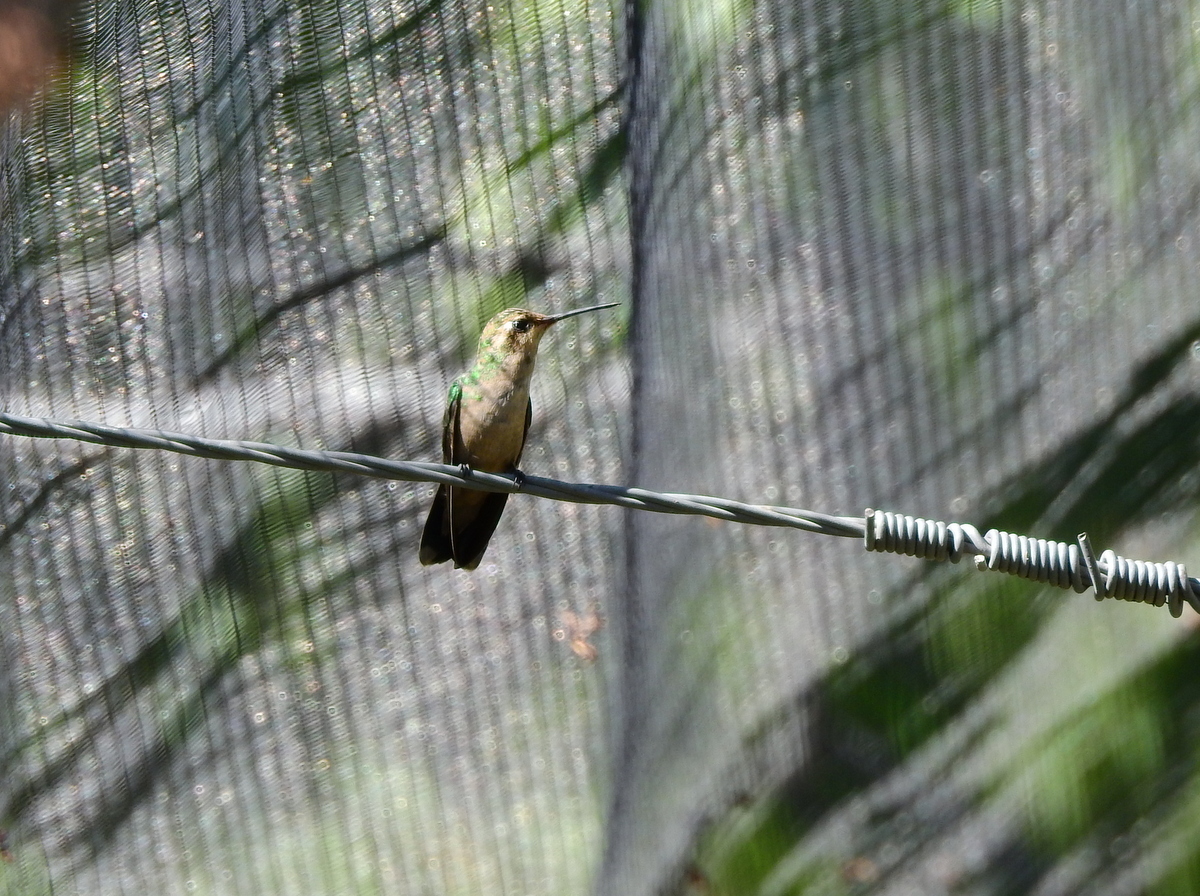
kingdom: Animalia
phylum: Chordata
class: Aves
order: Apodiformes
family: Trochilidae
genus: Chlorostilbon
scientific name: Chlorostilbon lucidus
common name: Glittering-bellied emerald
